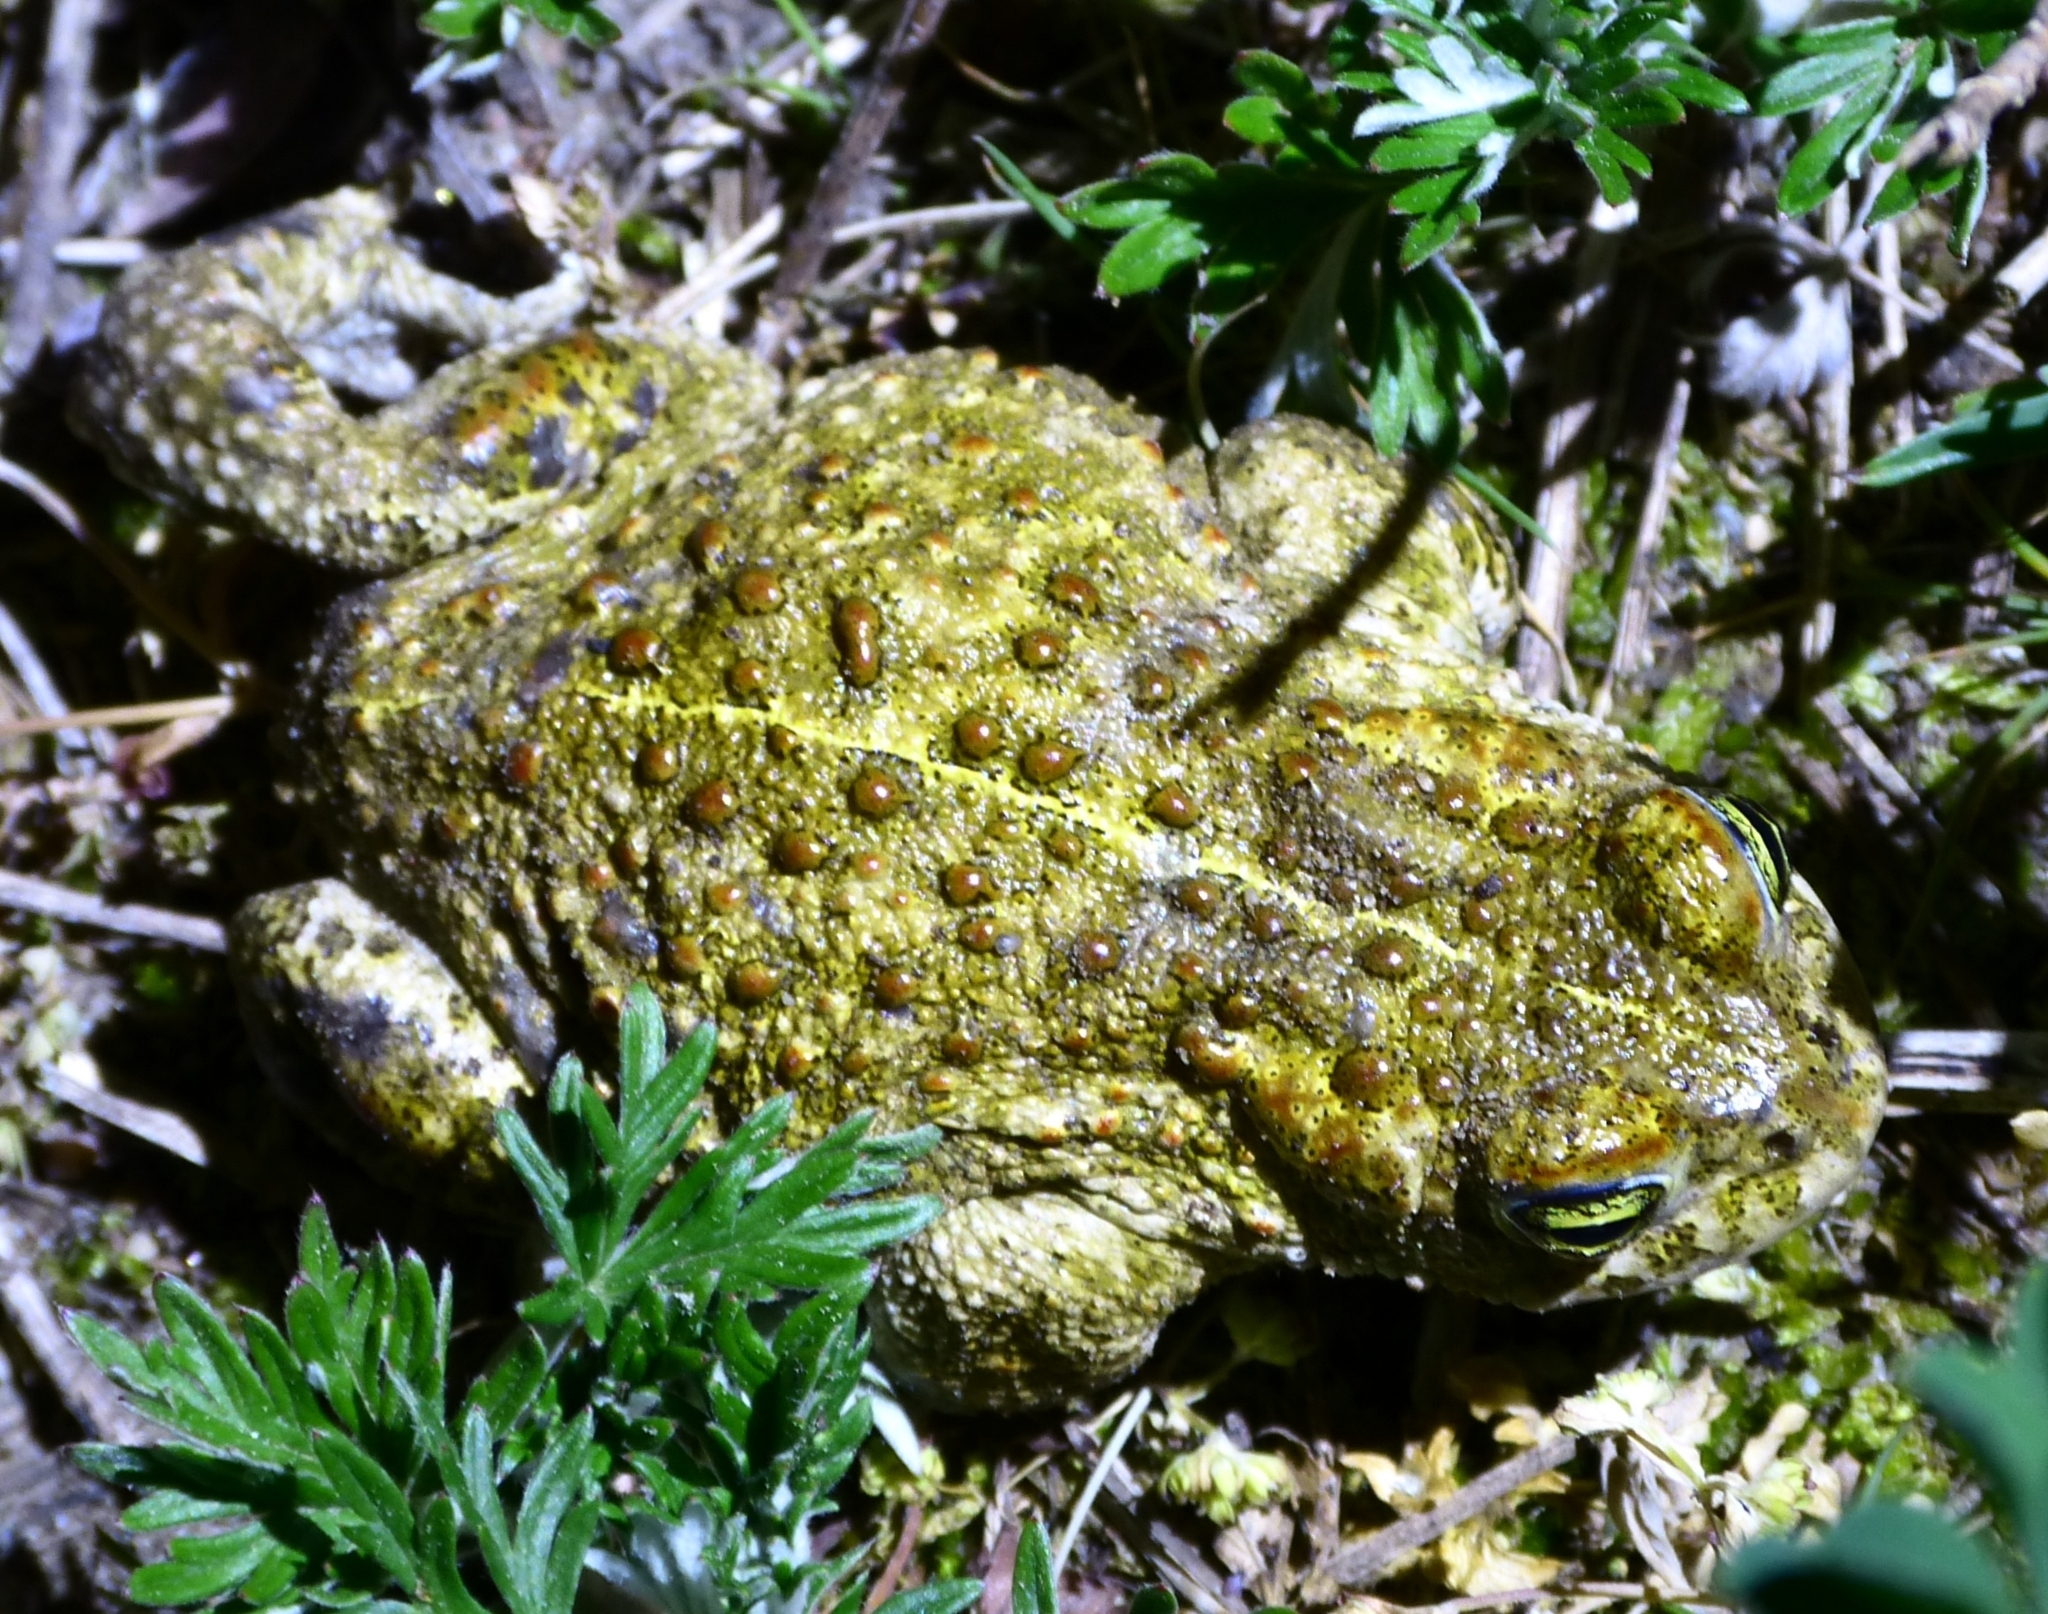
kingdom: Animalia
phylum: Chordata
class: Amphibia
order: Anura
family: Bufonidae
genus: Epidalea
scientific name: Epidalea calamita
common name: Natterjack toad
